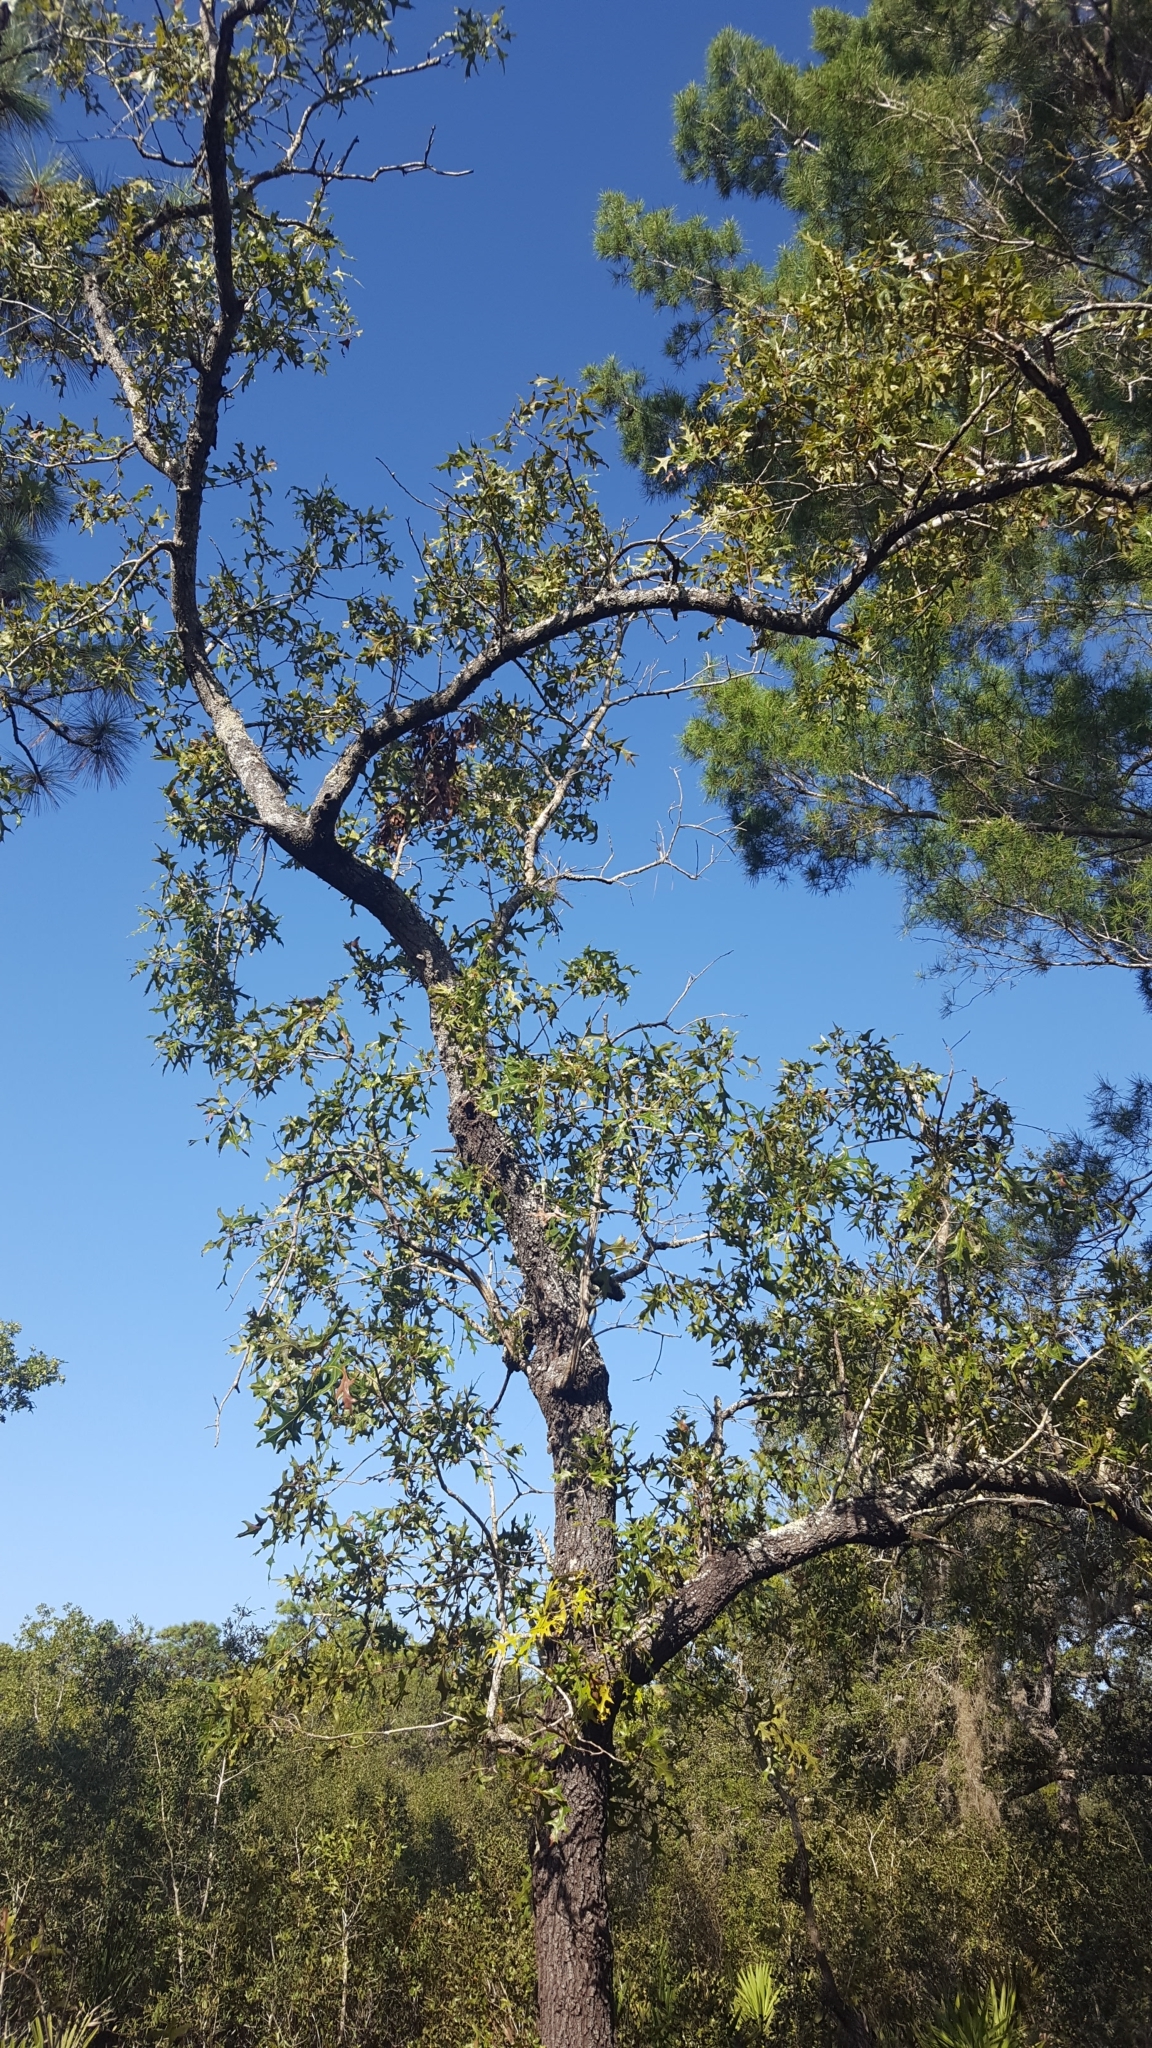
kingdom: Plantae
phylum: Tracheophyta
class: Magnoliopsida
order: Fagales
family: Fagaceae
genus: Quercus
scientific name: Quercus laevis
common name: Turkey oak
